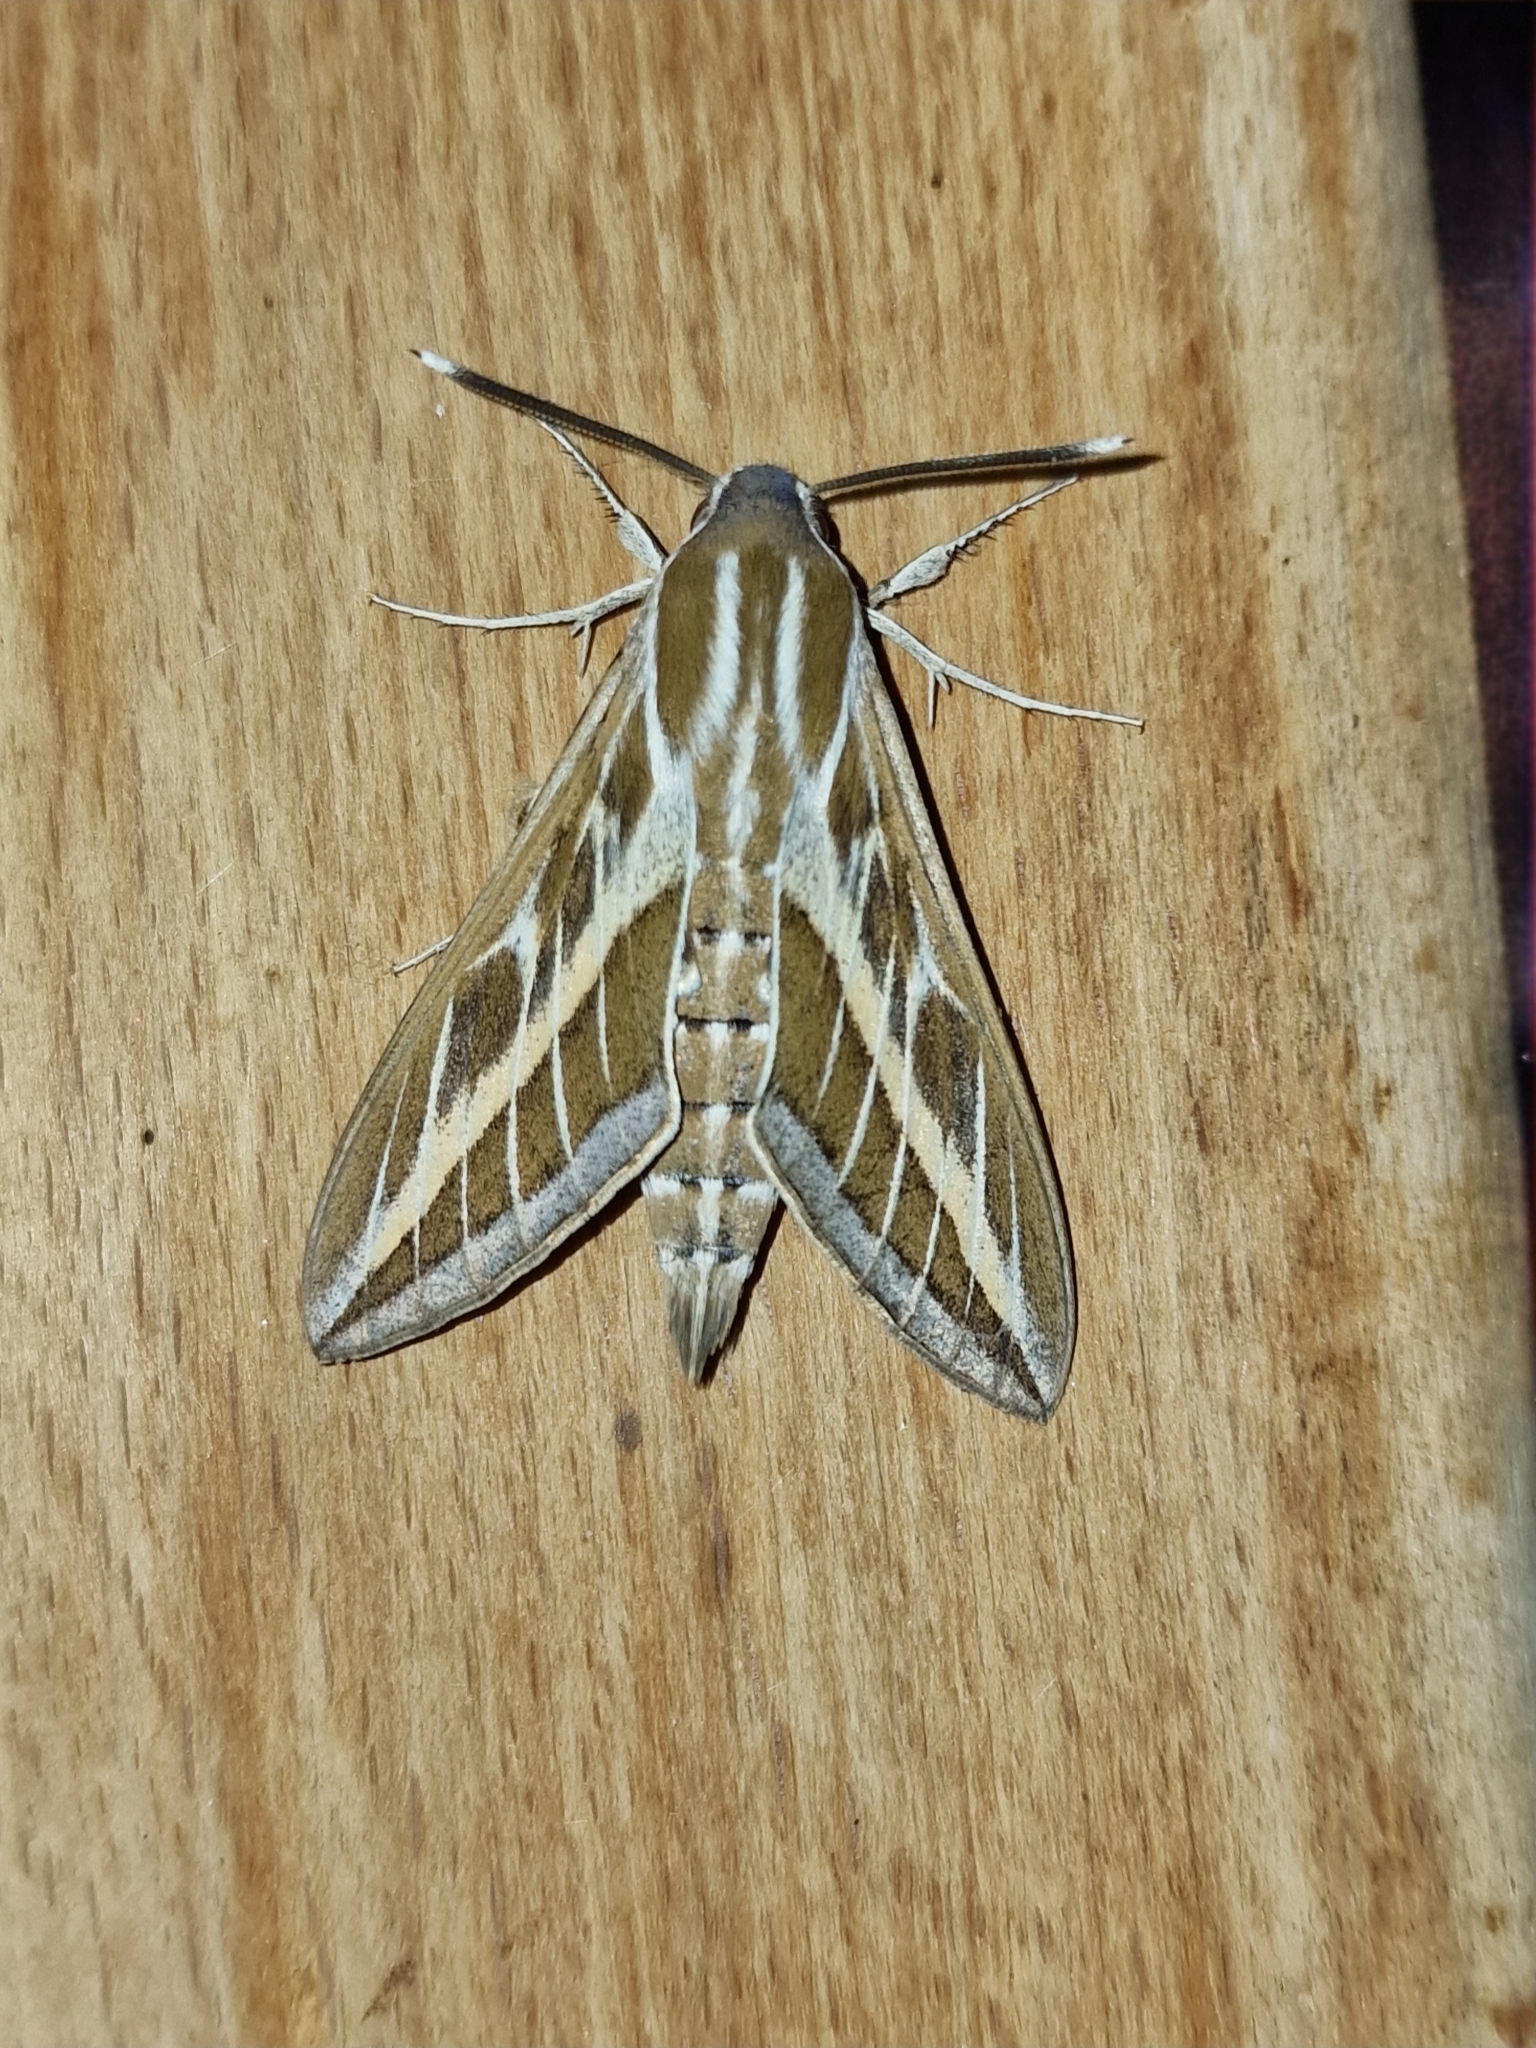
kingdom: Animalia
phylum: Arthropoda
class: Insecta
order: Lepidoptera
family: Sphingidae
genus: Hyles
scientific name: Hyles livornica
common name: Striped hawk-moth
